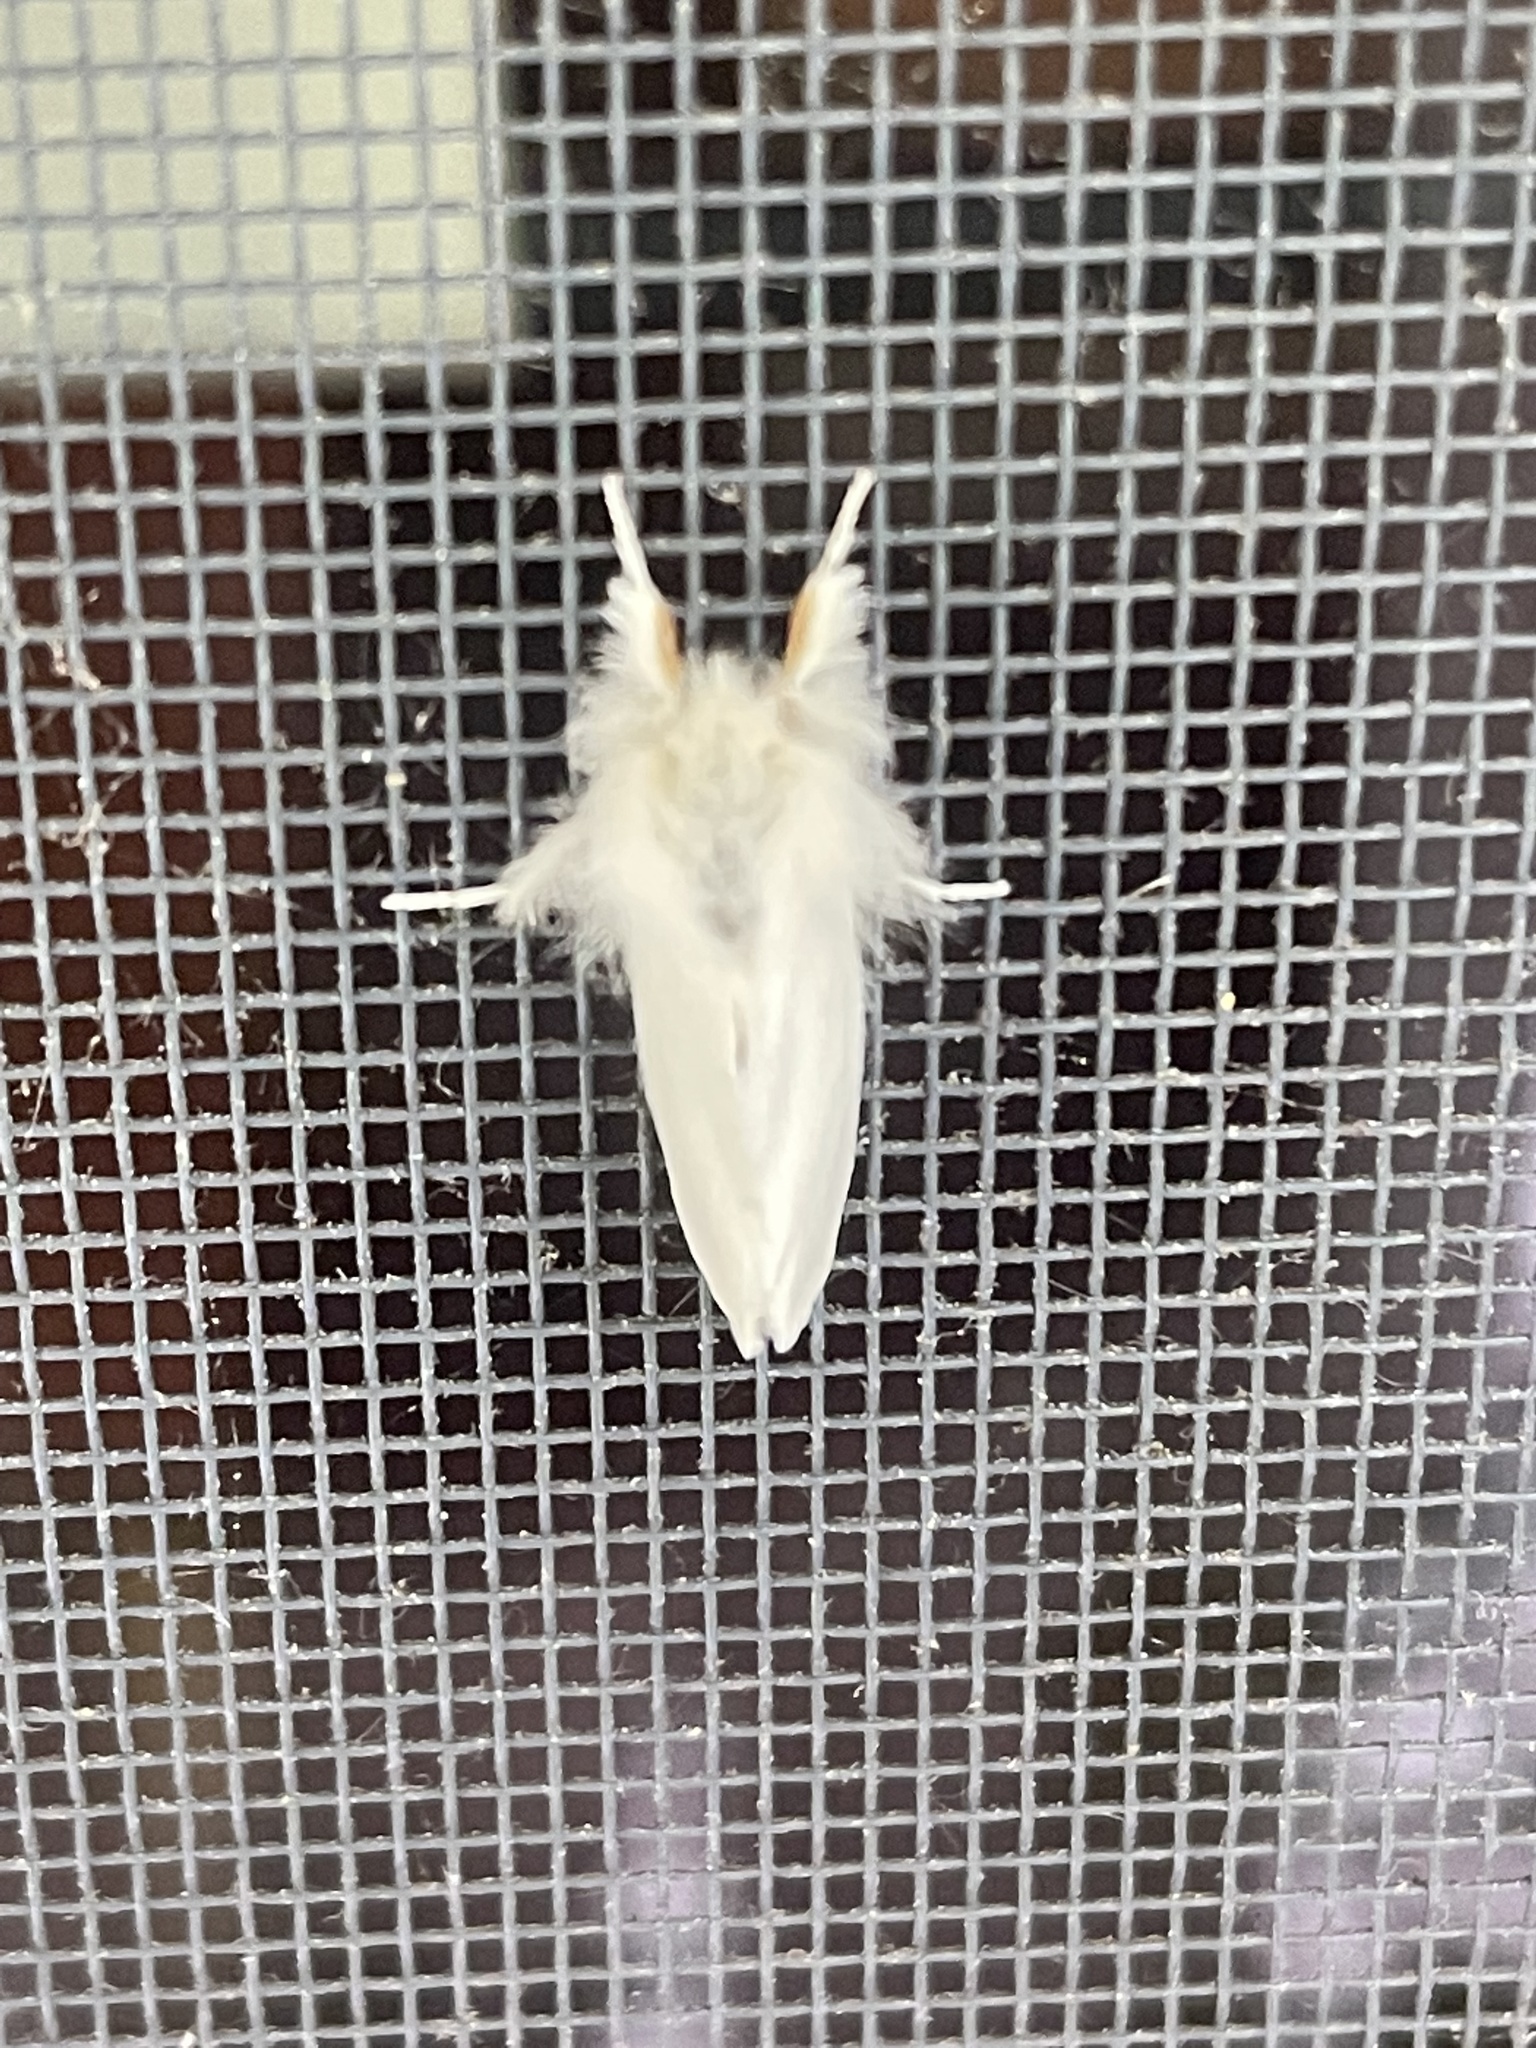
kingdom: Animalia
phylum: Arthropoda
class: Insecta
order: Lepidoptera
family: Erebidae
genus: Euproctis
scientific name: Euproctis chrysorrhoea
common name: Brown-tail
